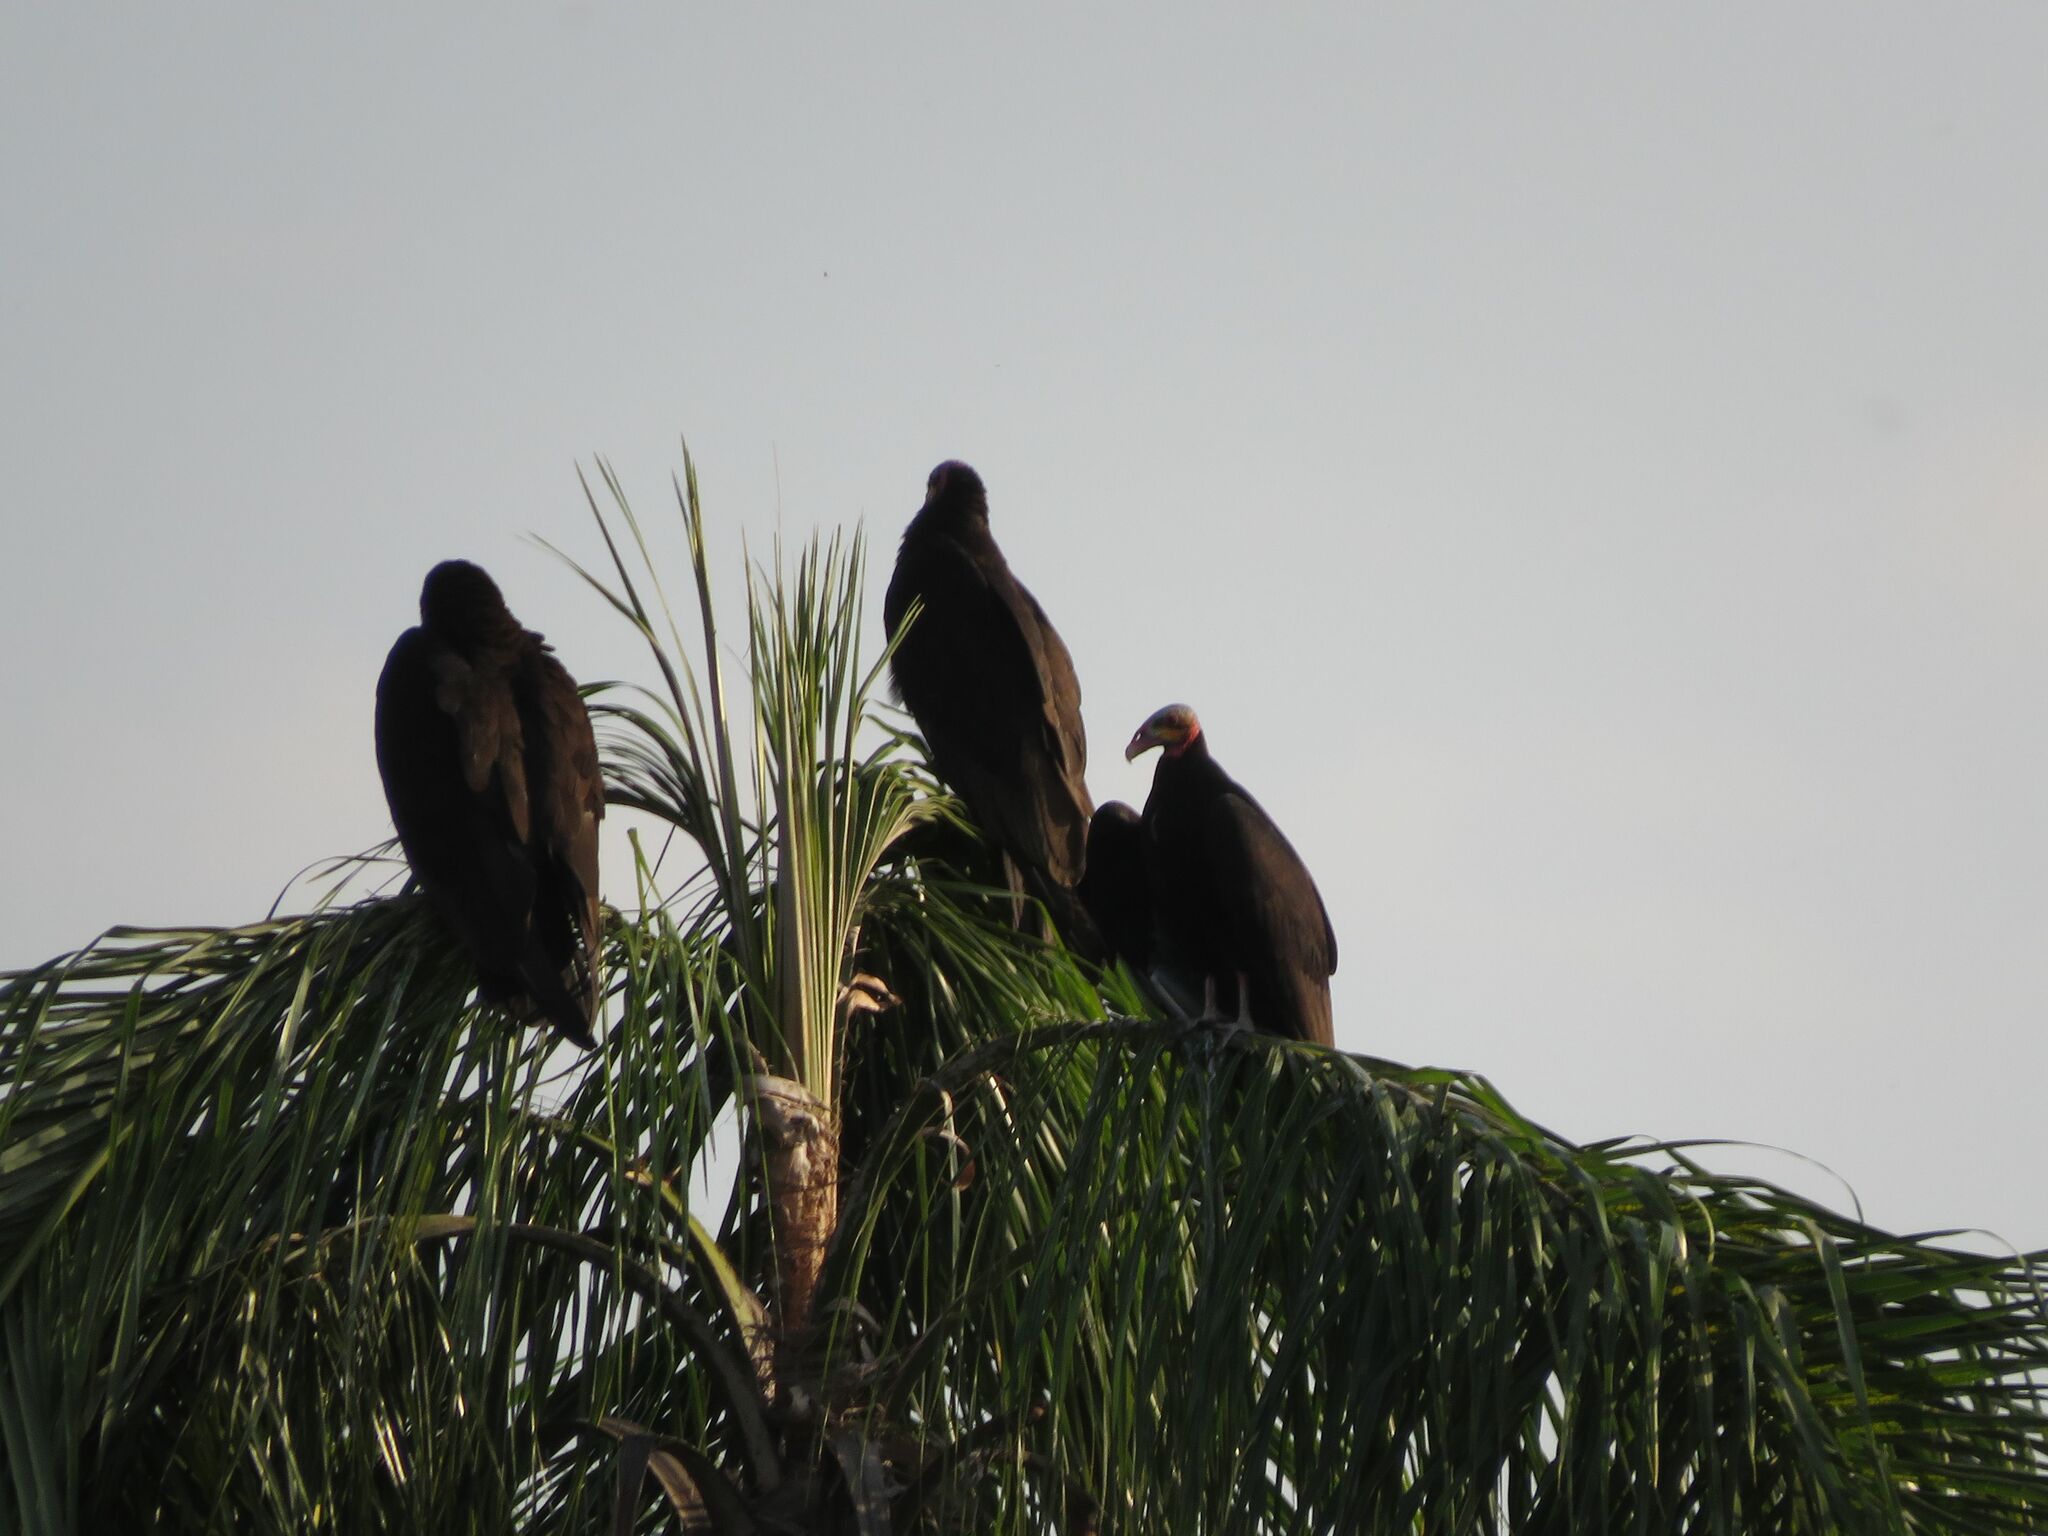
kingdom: Animalia
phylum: Chordata
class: Aves
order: Accipitriformes
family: Cathartidae
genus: Cathartes
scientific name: Cathartes burrovianus
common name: Lesser yellow-headed vulture
